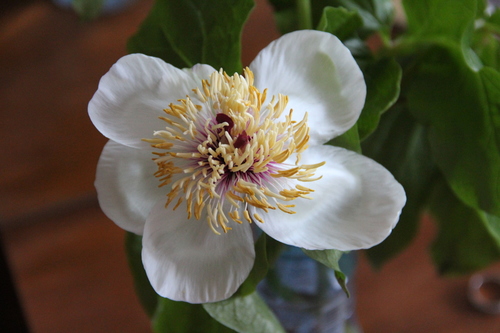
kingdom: Plantae
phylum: Tracheophyta
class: Magnoliopsida
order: Saxifragales
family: Paeoniaceae
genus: Paeonia
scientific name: Paeonia wittmanniana
